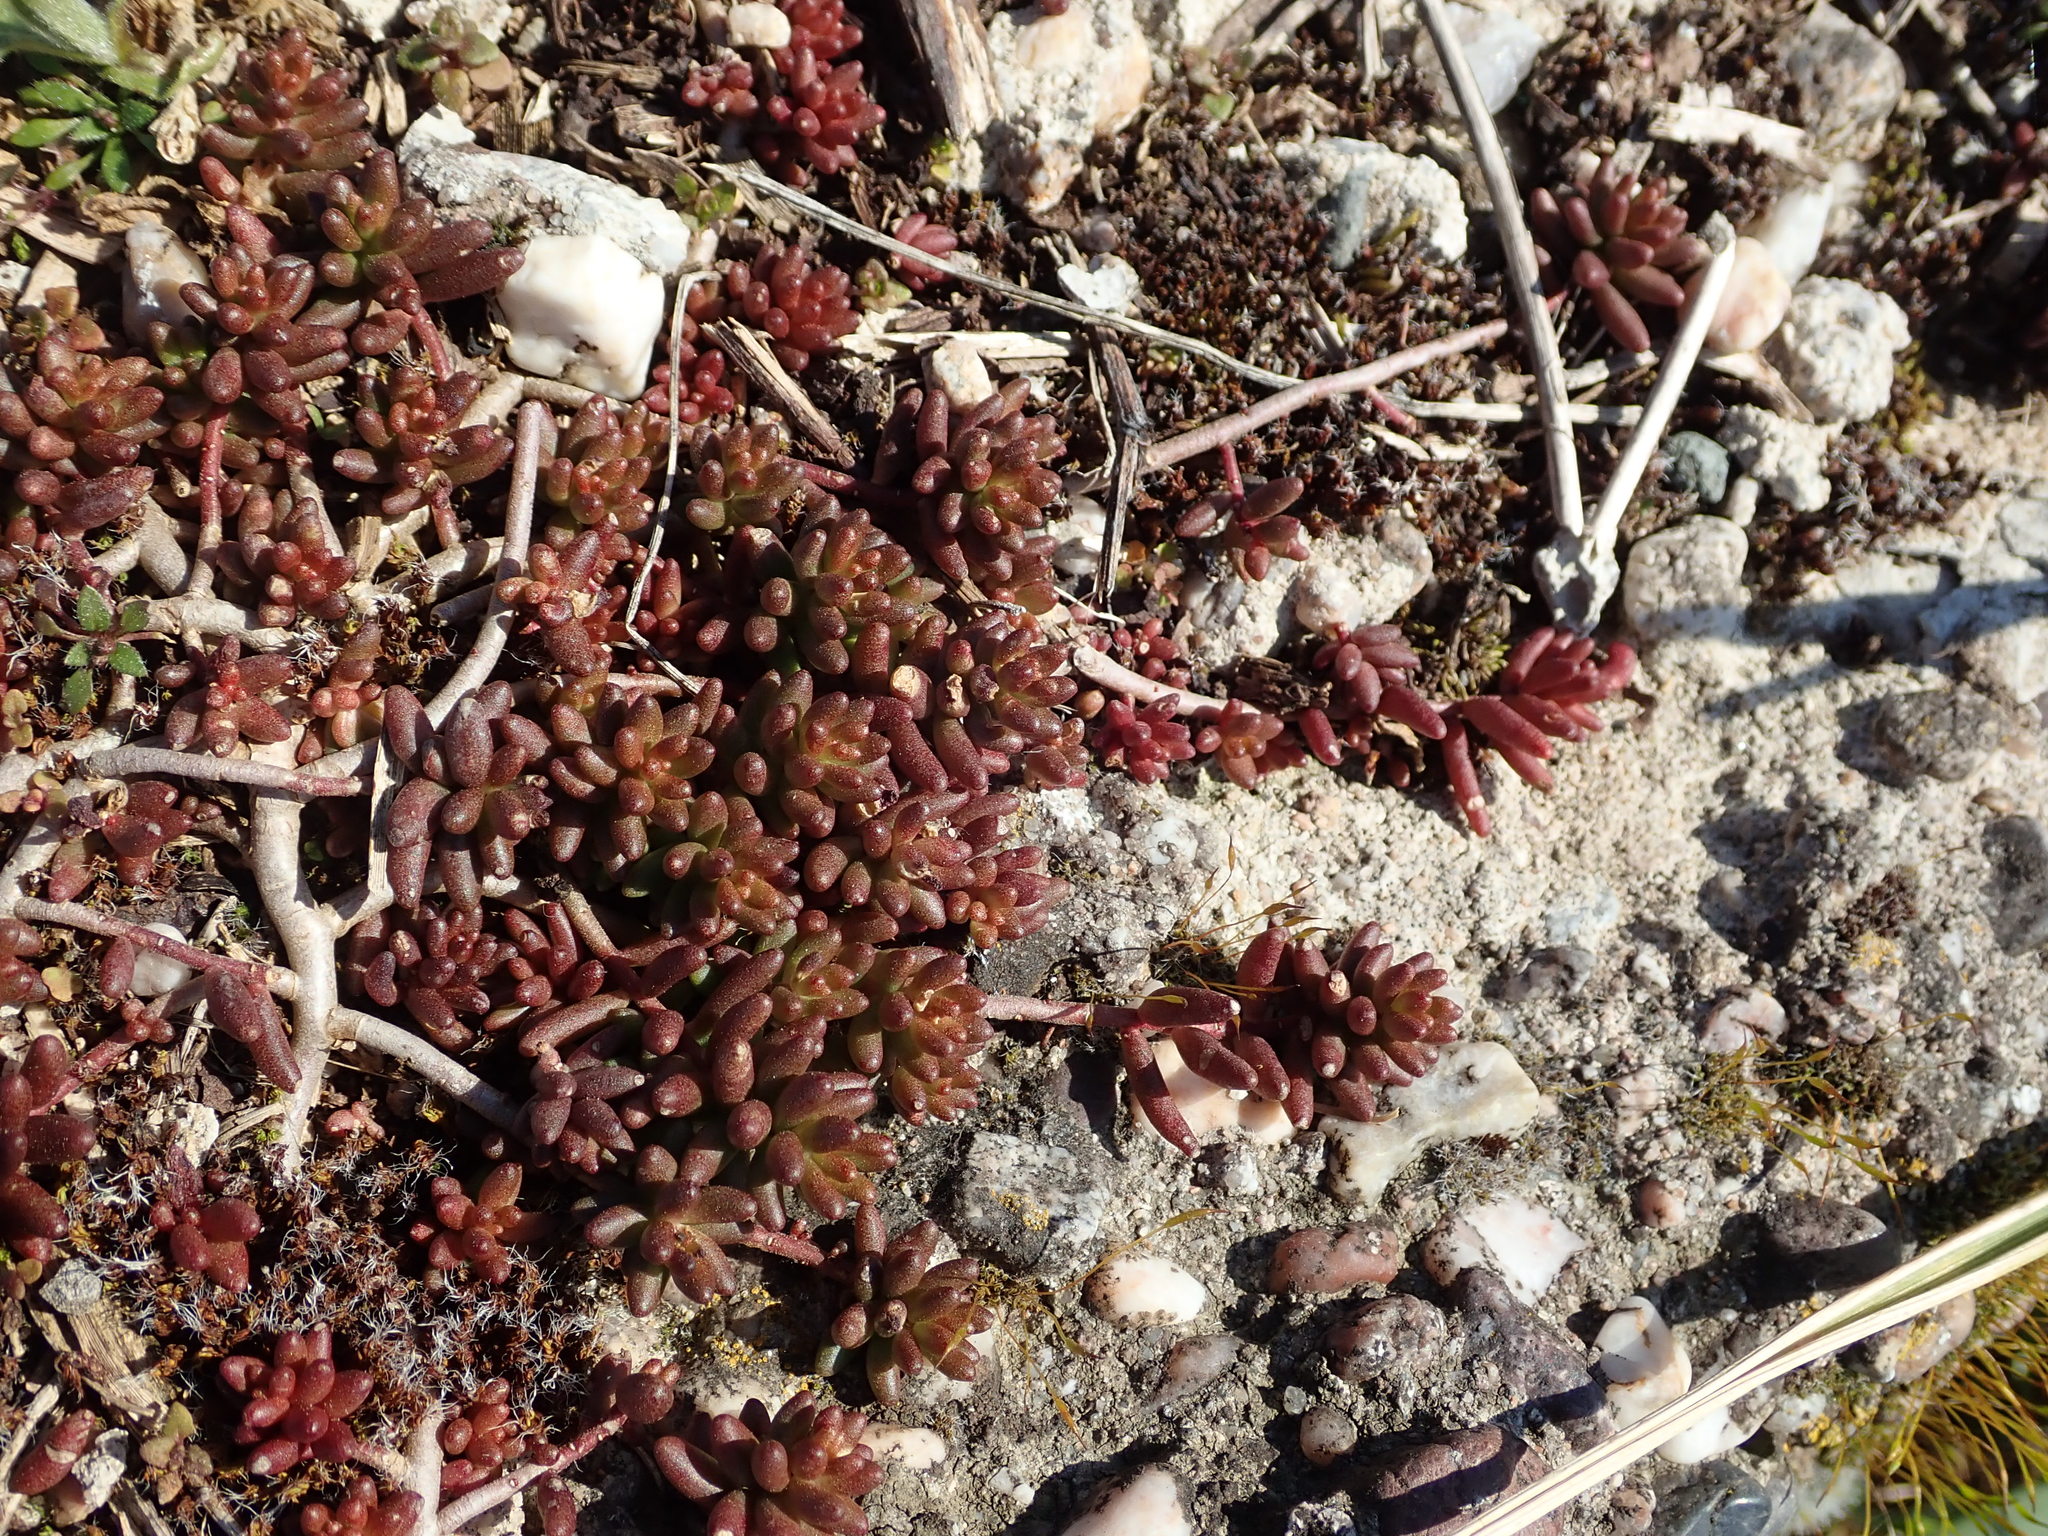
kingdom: Plantae
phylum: Tracheophyta
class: Magnoliopsida
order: Saxifragales
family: Crassulaceae
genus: Sedum
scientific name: Sedum album
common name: White stonecrop
